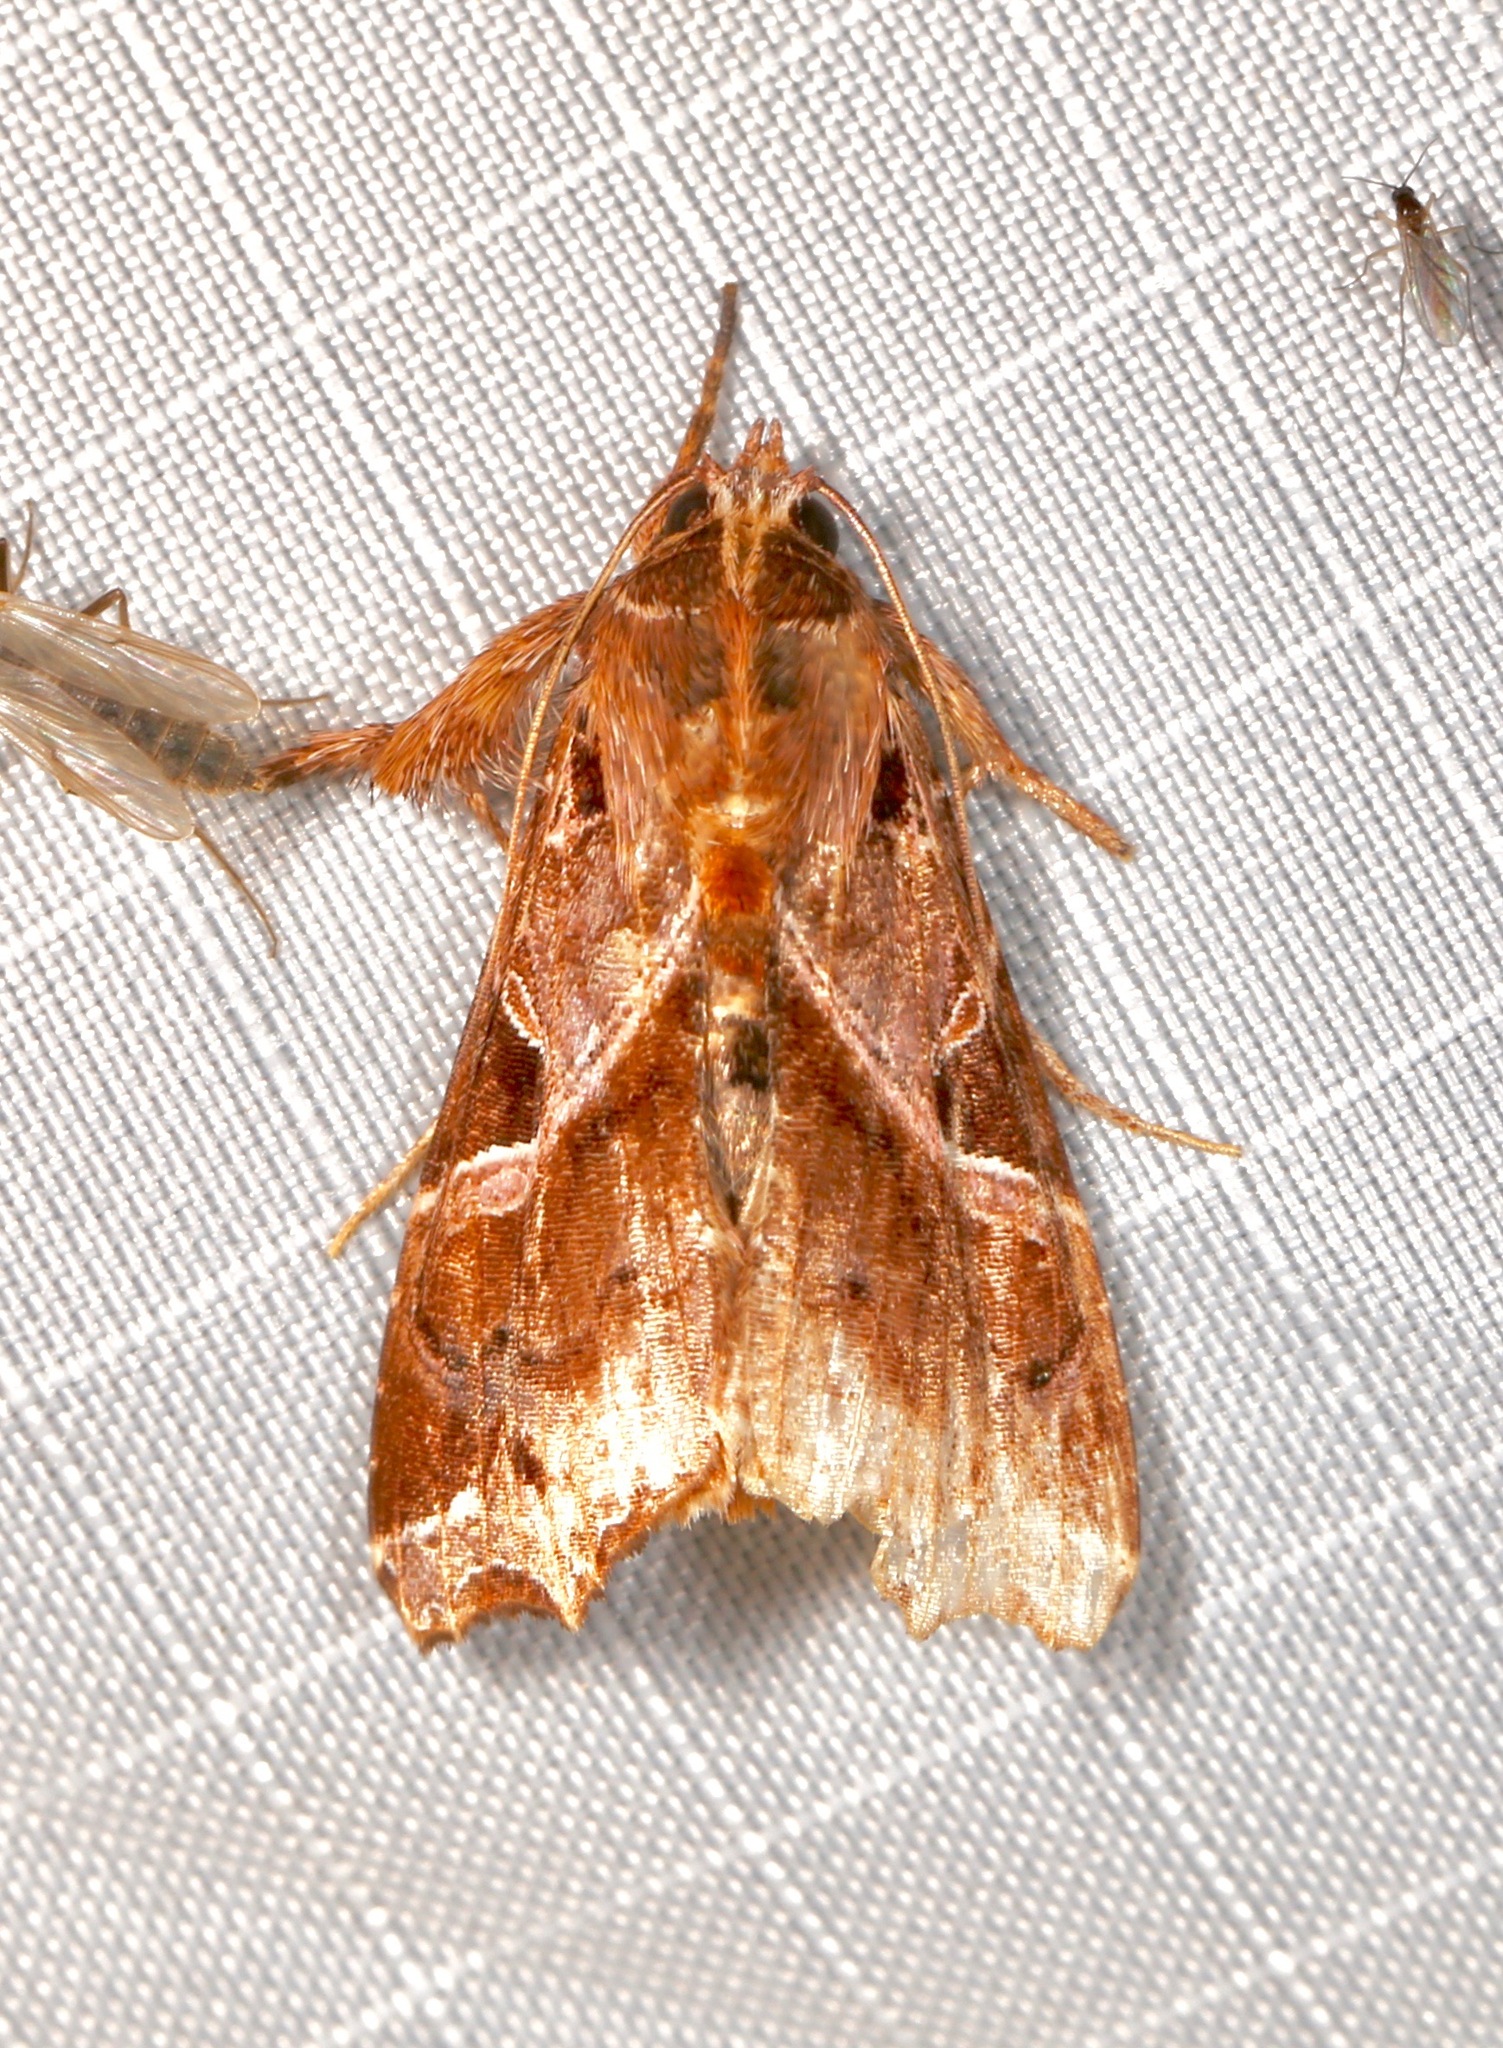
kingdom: Animalia
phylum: Arthropoda
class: Insecta
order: Lepidoptera
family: Noctuidae
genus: Callopistria
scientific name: Callopistria floridensis
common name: Florida fern moth
